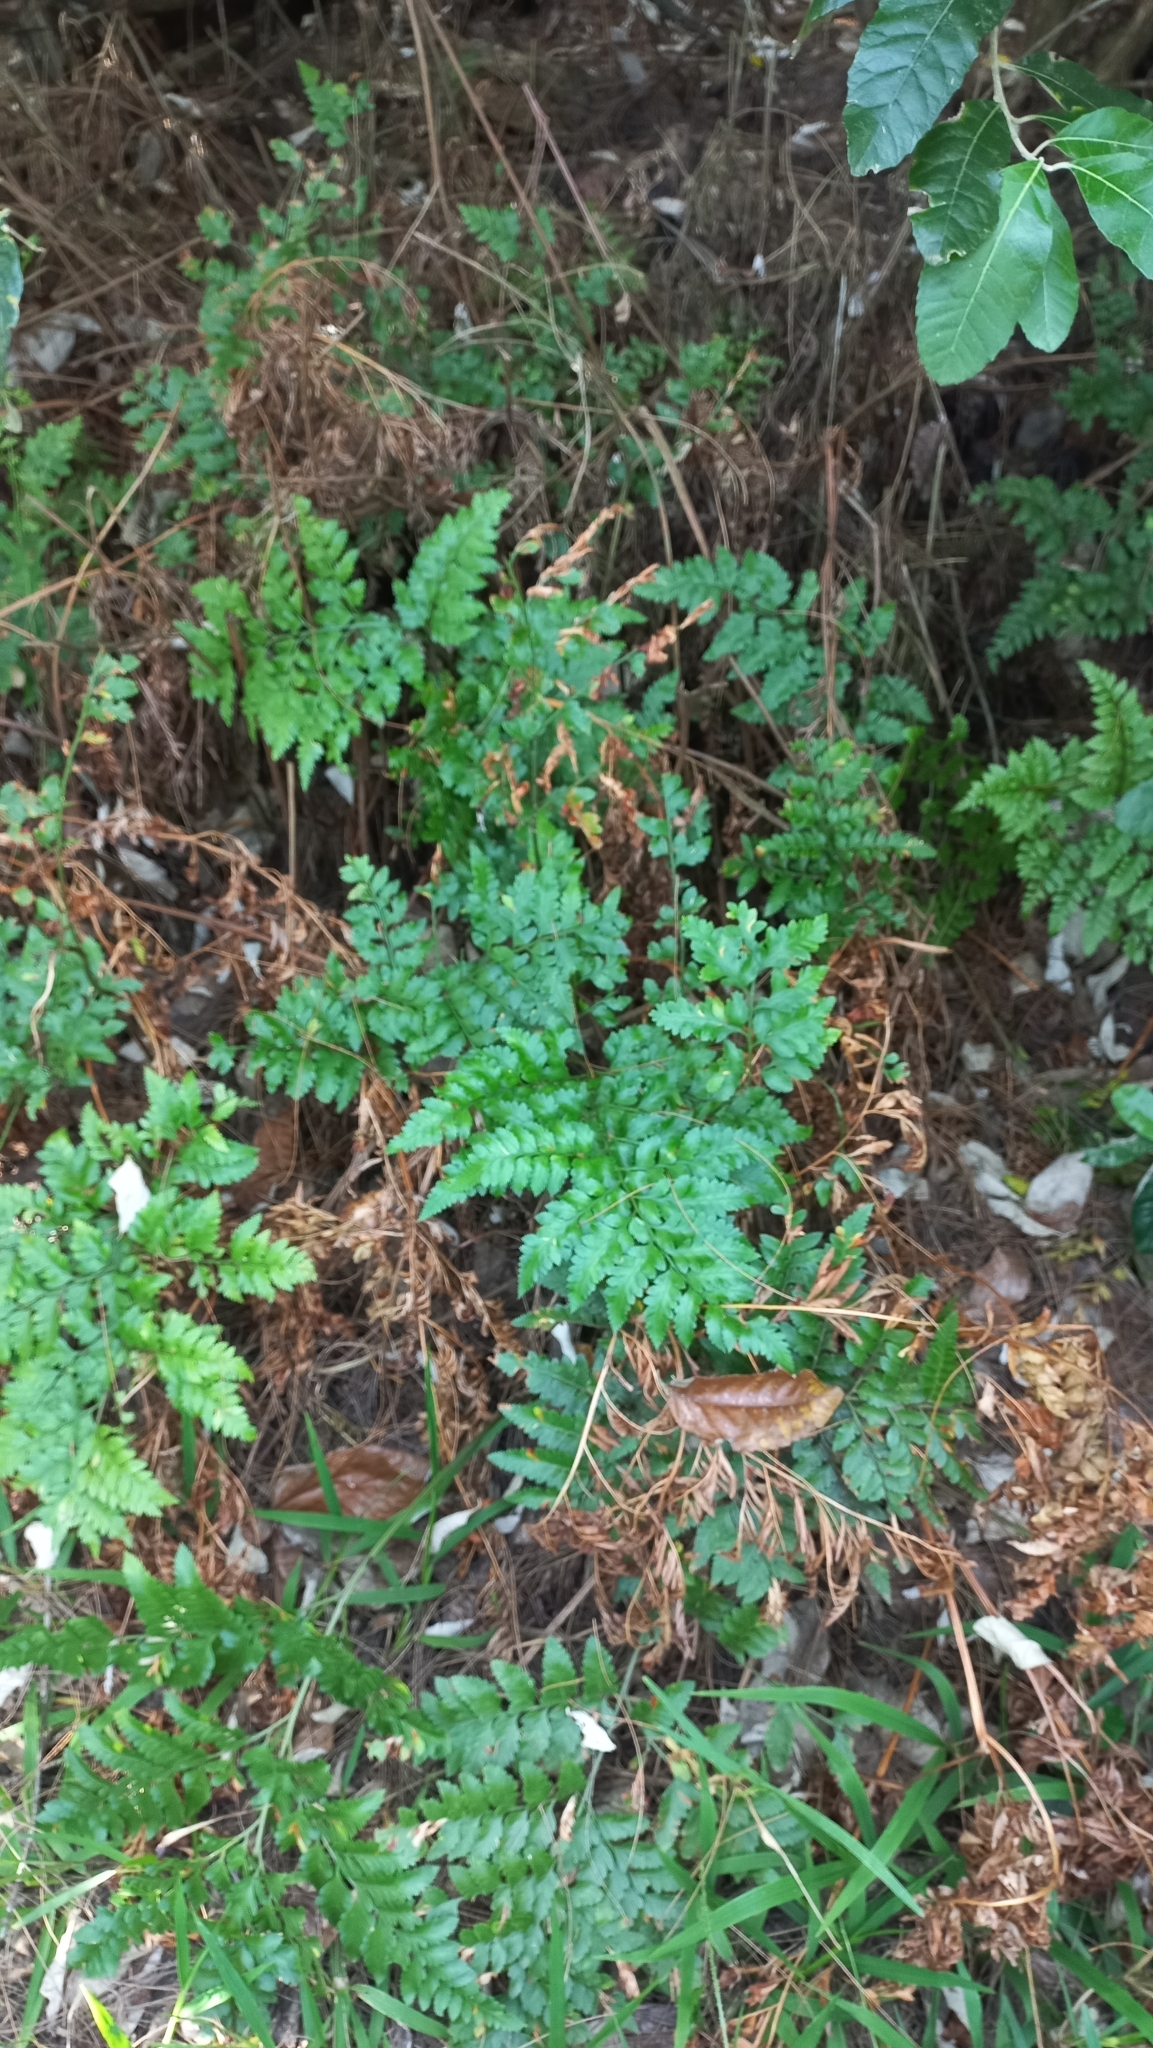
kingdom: Plantae
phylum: Tracheophyta
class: Polypodiopsida
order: Polypodiales
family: Dryopteridaceae
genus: Rumohra
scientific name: Rumohra adiantiformis
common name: Leather fern
